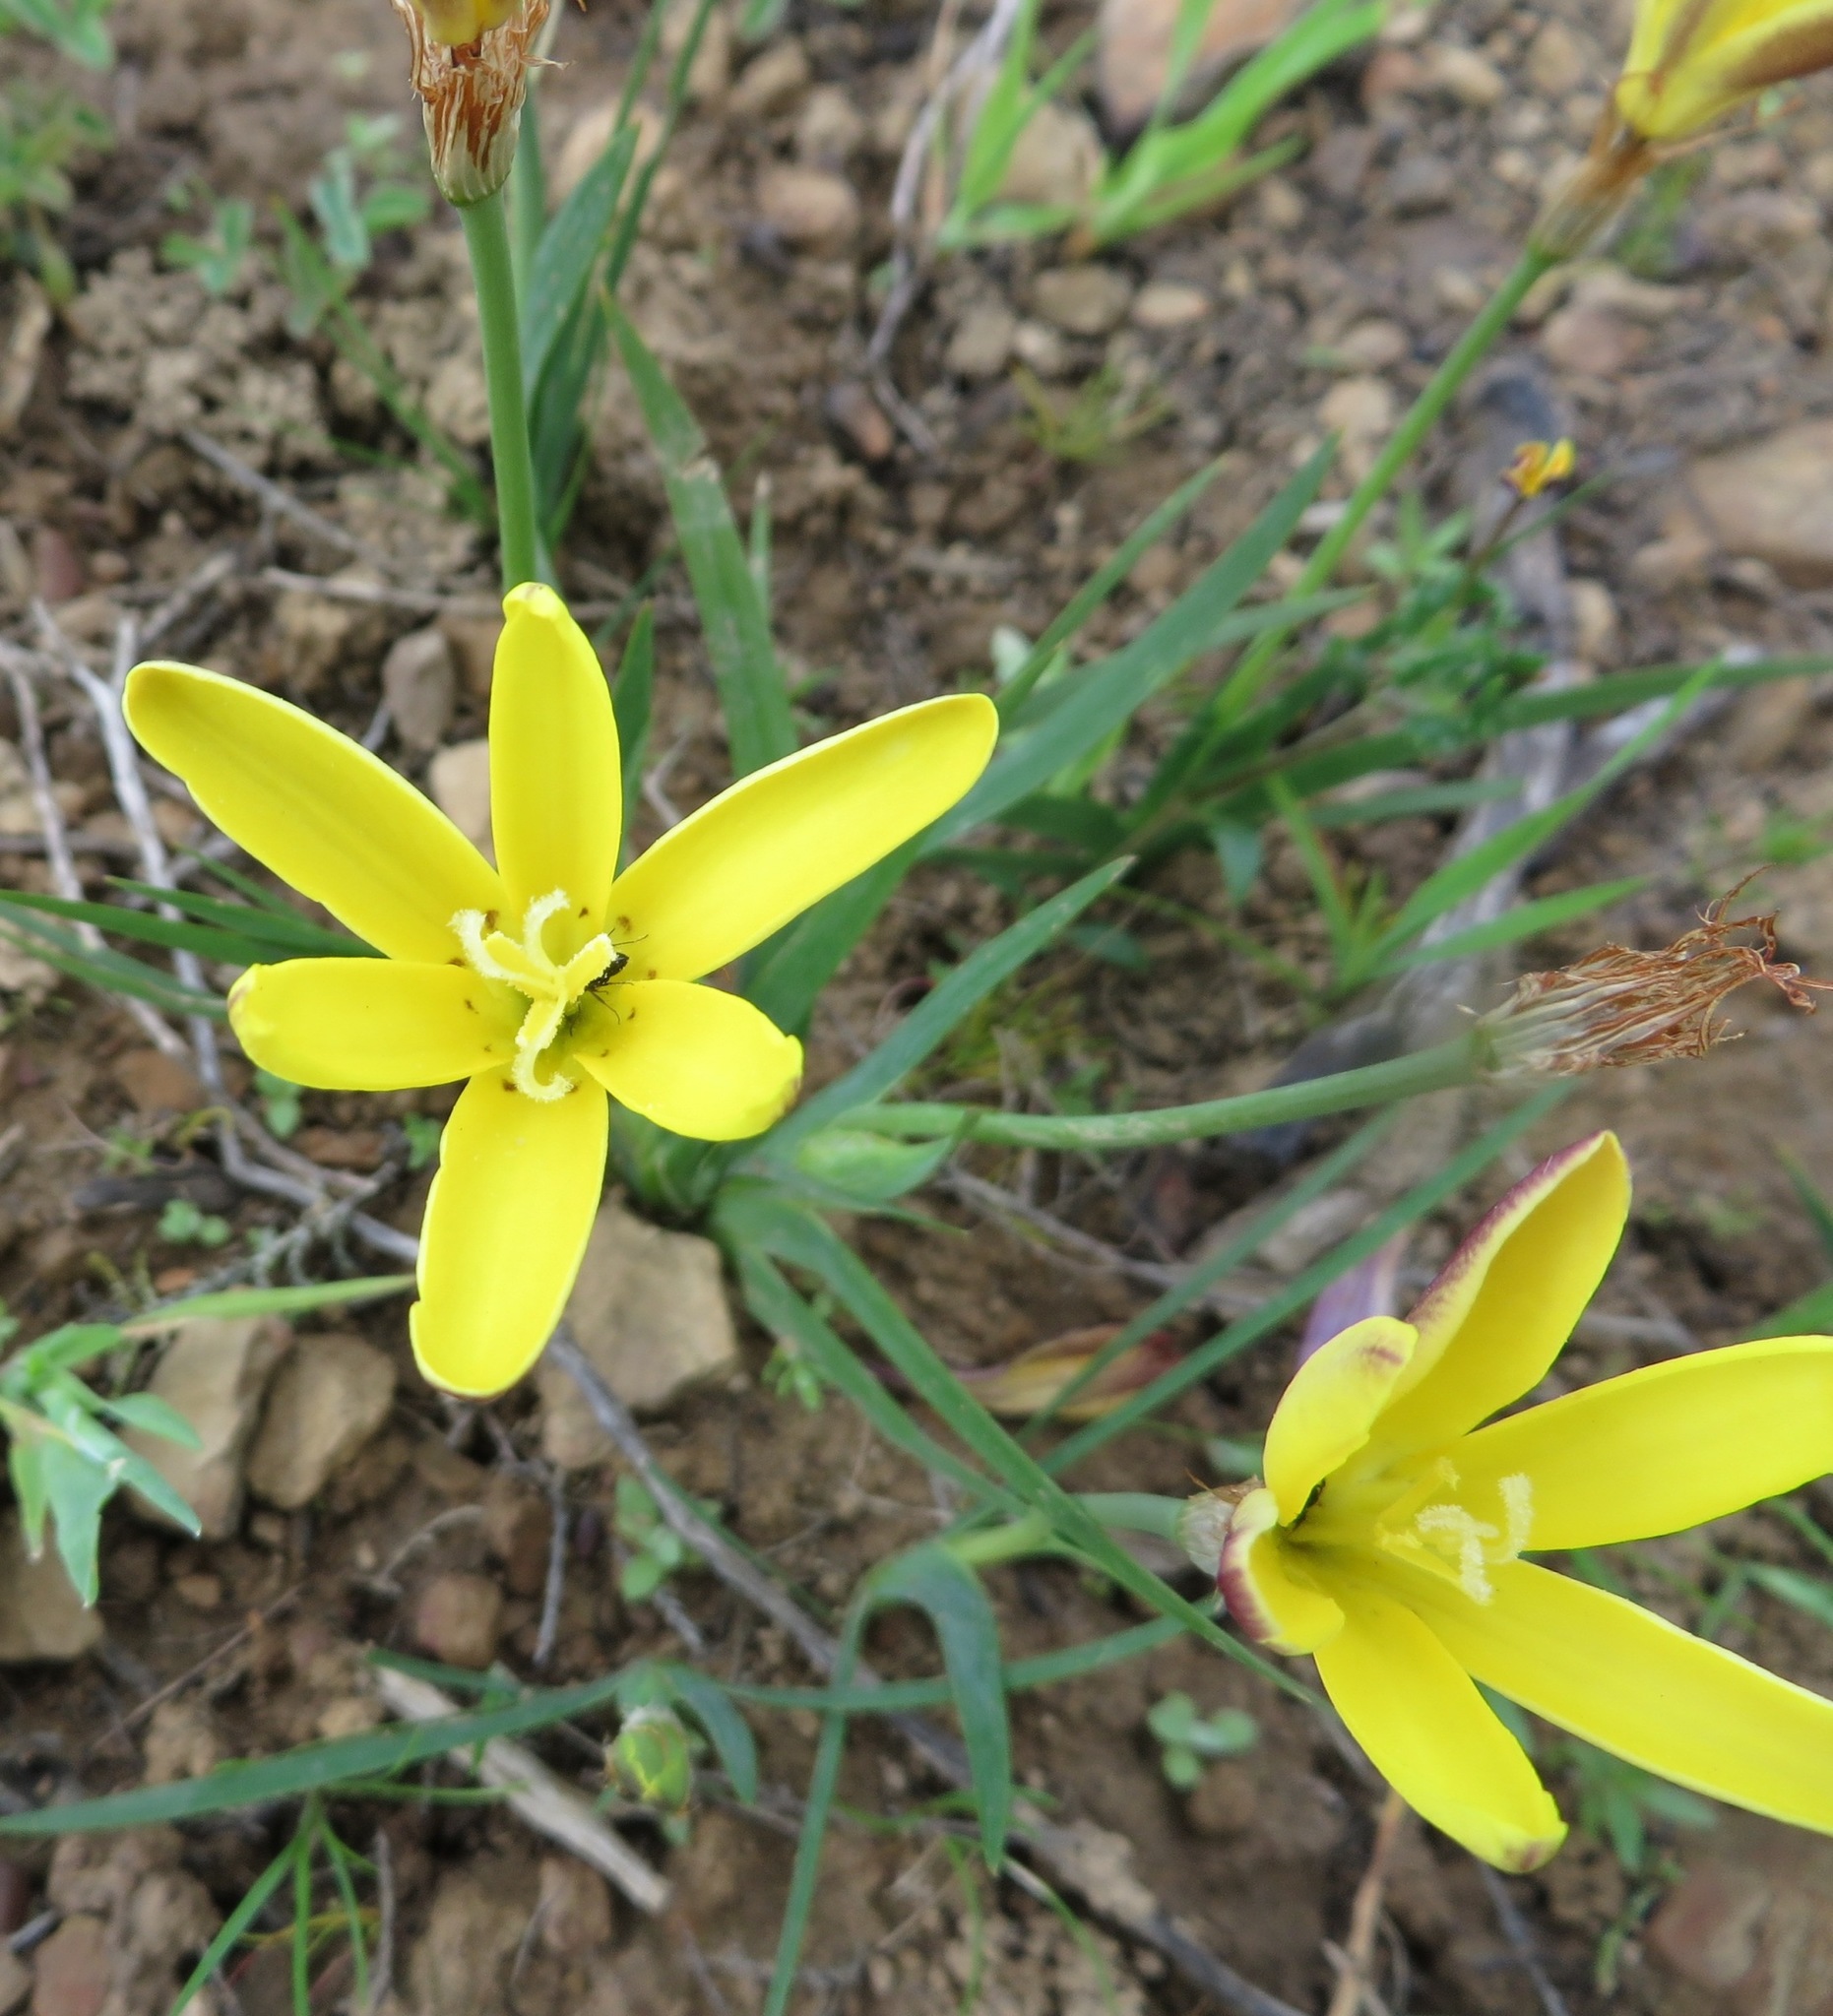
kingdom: Plantae
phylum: Tracheophyta
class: Liliopsida
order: Asparagales
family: Iridaceae
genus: Sparaxis
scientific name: Sparaxis grandiflora
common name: Plain harlequin-flower
